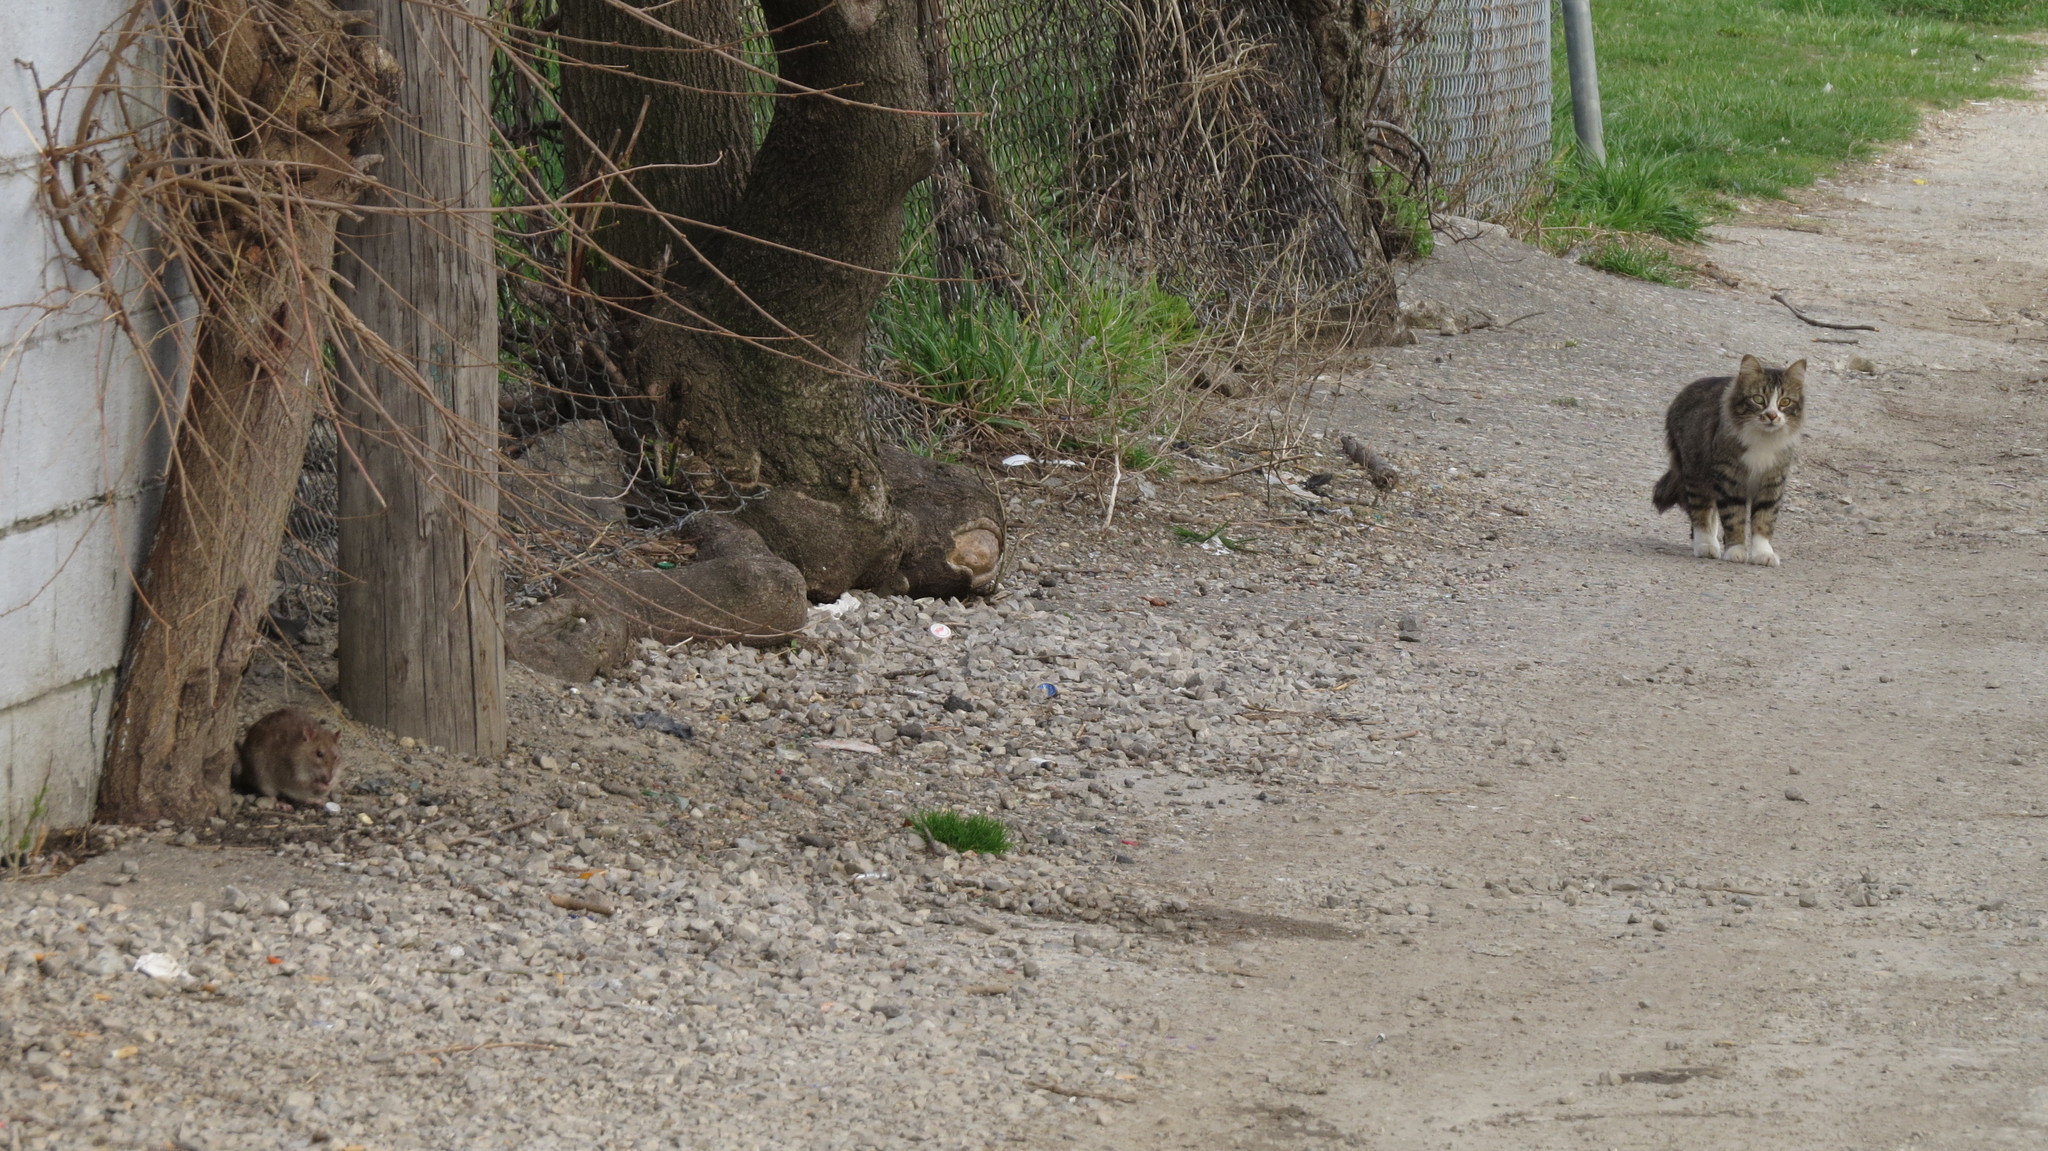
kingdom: Animalia
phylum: Chordata
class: Mammalia
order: Carnivora
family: Felidae
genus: Felis
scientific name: Felis catus
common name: Domestic cat
